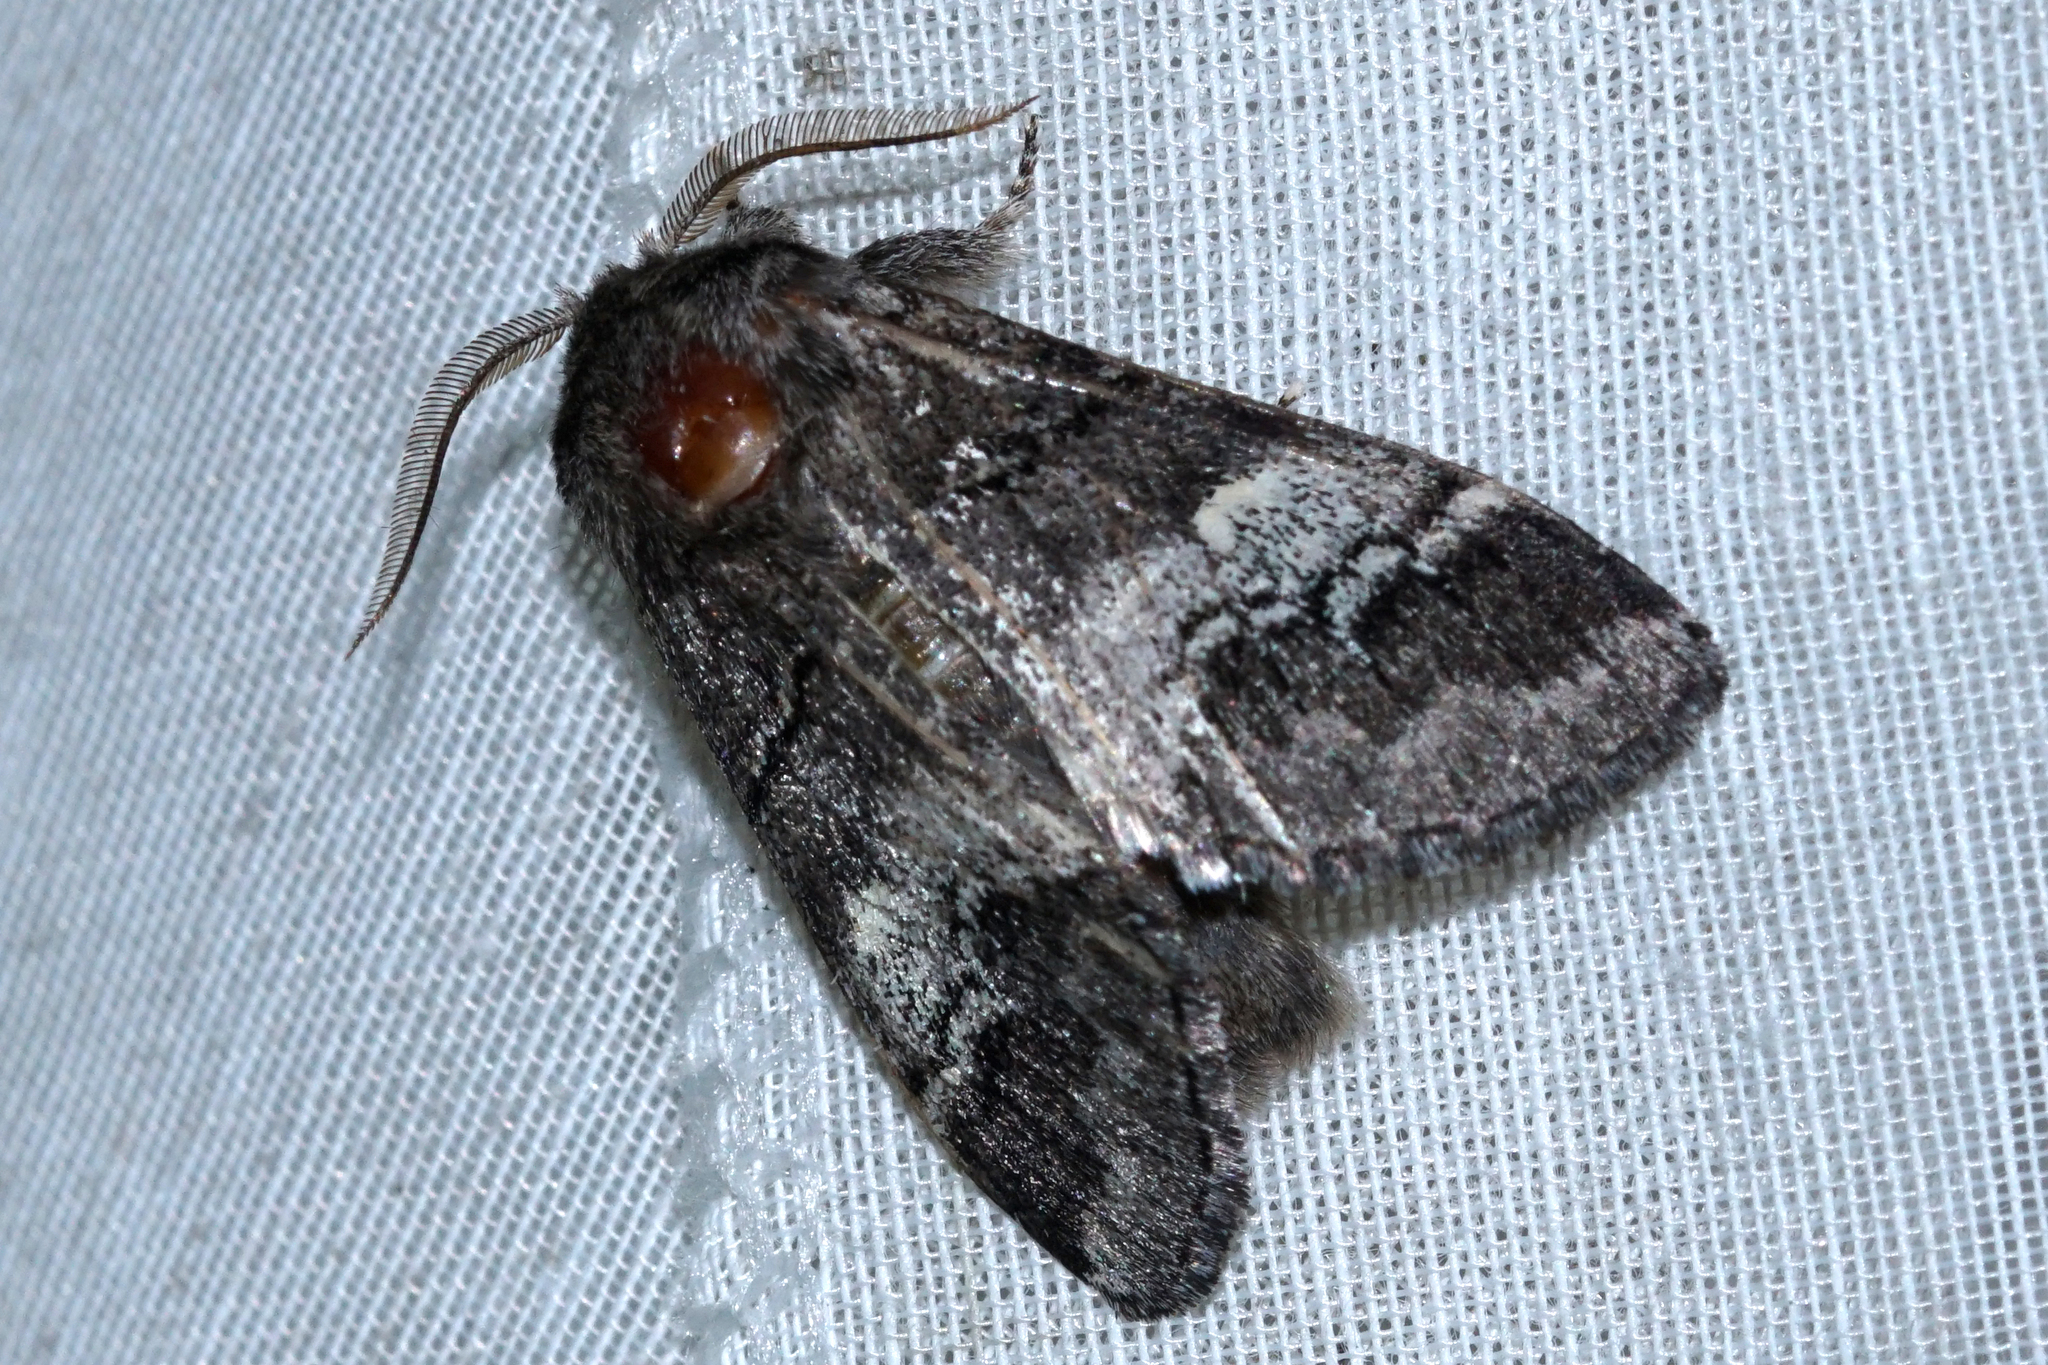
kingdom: Animalia
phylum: Arthropoda
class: Insecta
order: Lepidoptera
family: Notodontidae
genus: Drymonia
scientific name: Drymonia querna
